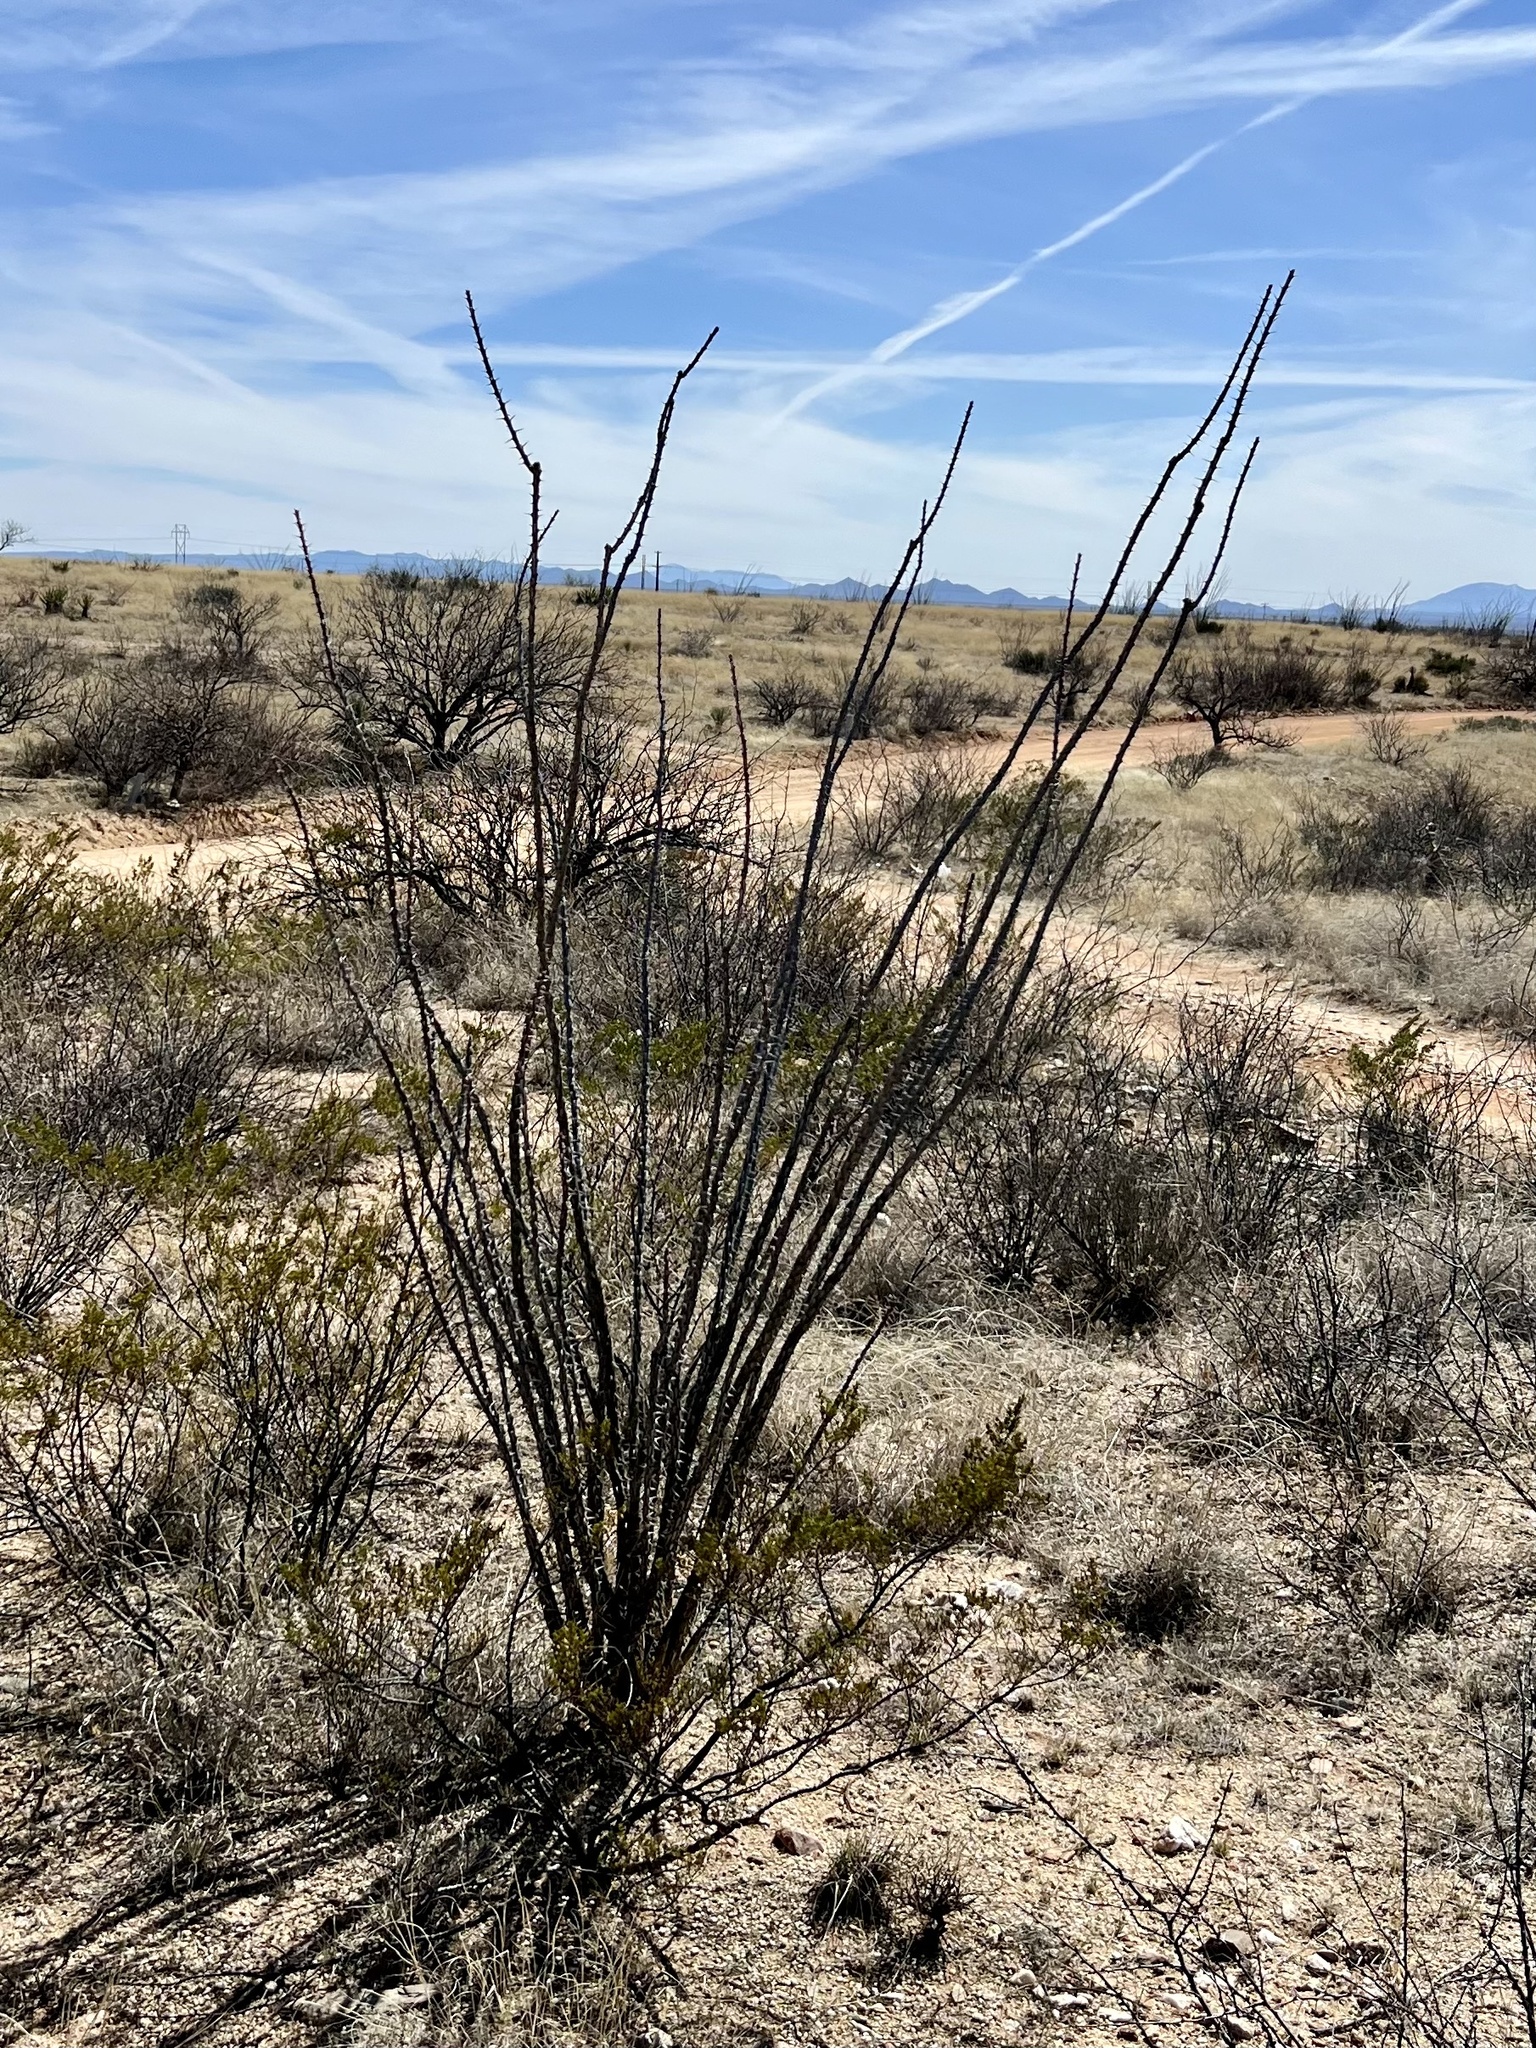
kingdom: Plantae
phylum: Tracheophyta
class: Magnoliopsida
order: Ericales
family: Fouquieriaceae
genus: Fouquieria
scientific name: Fouquieria splendens
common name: Vine-cactus
